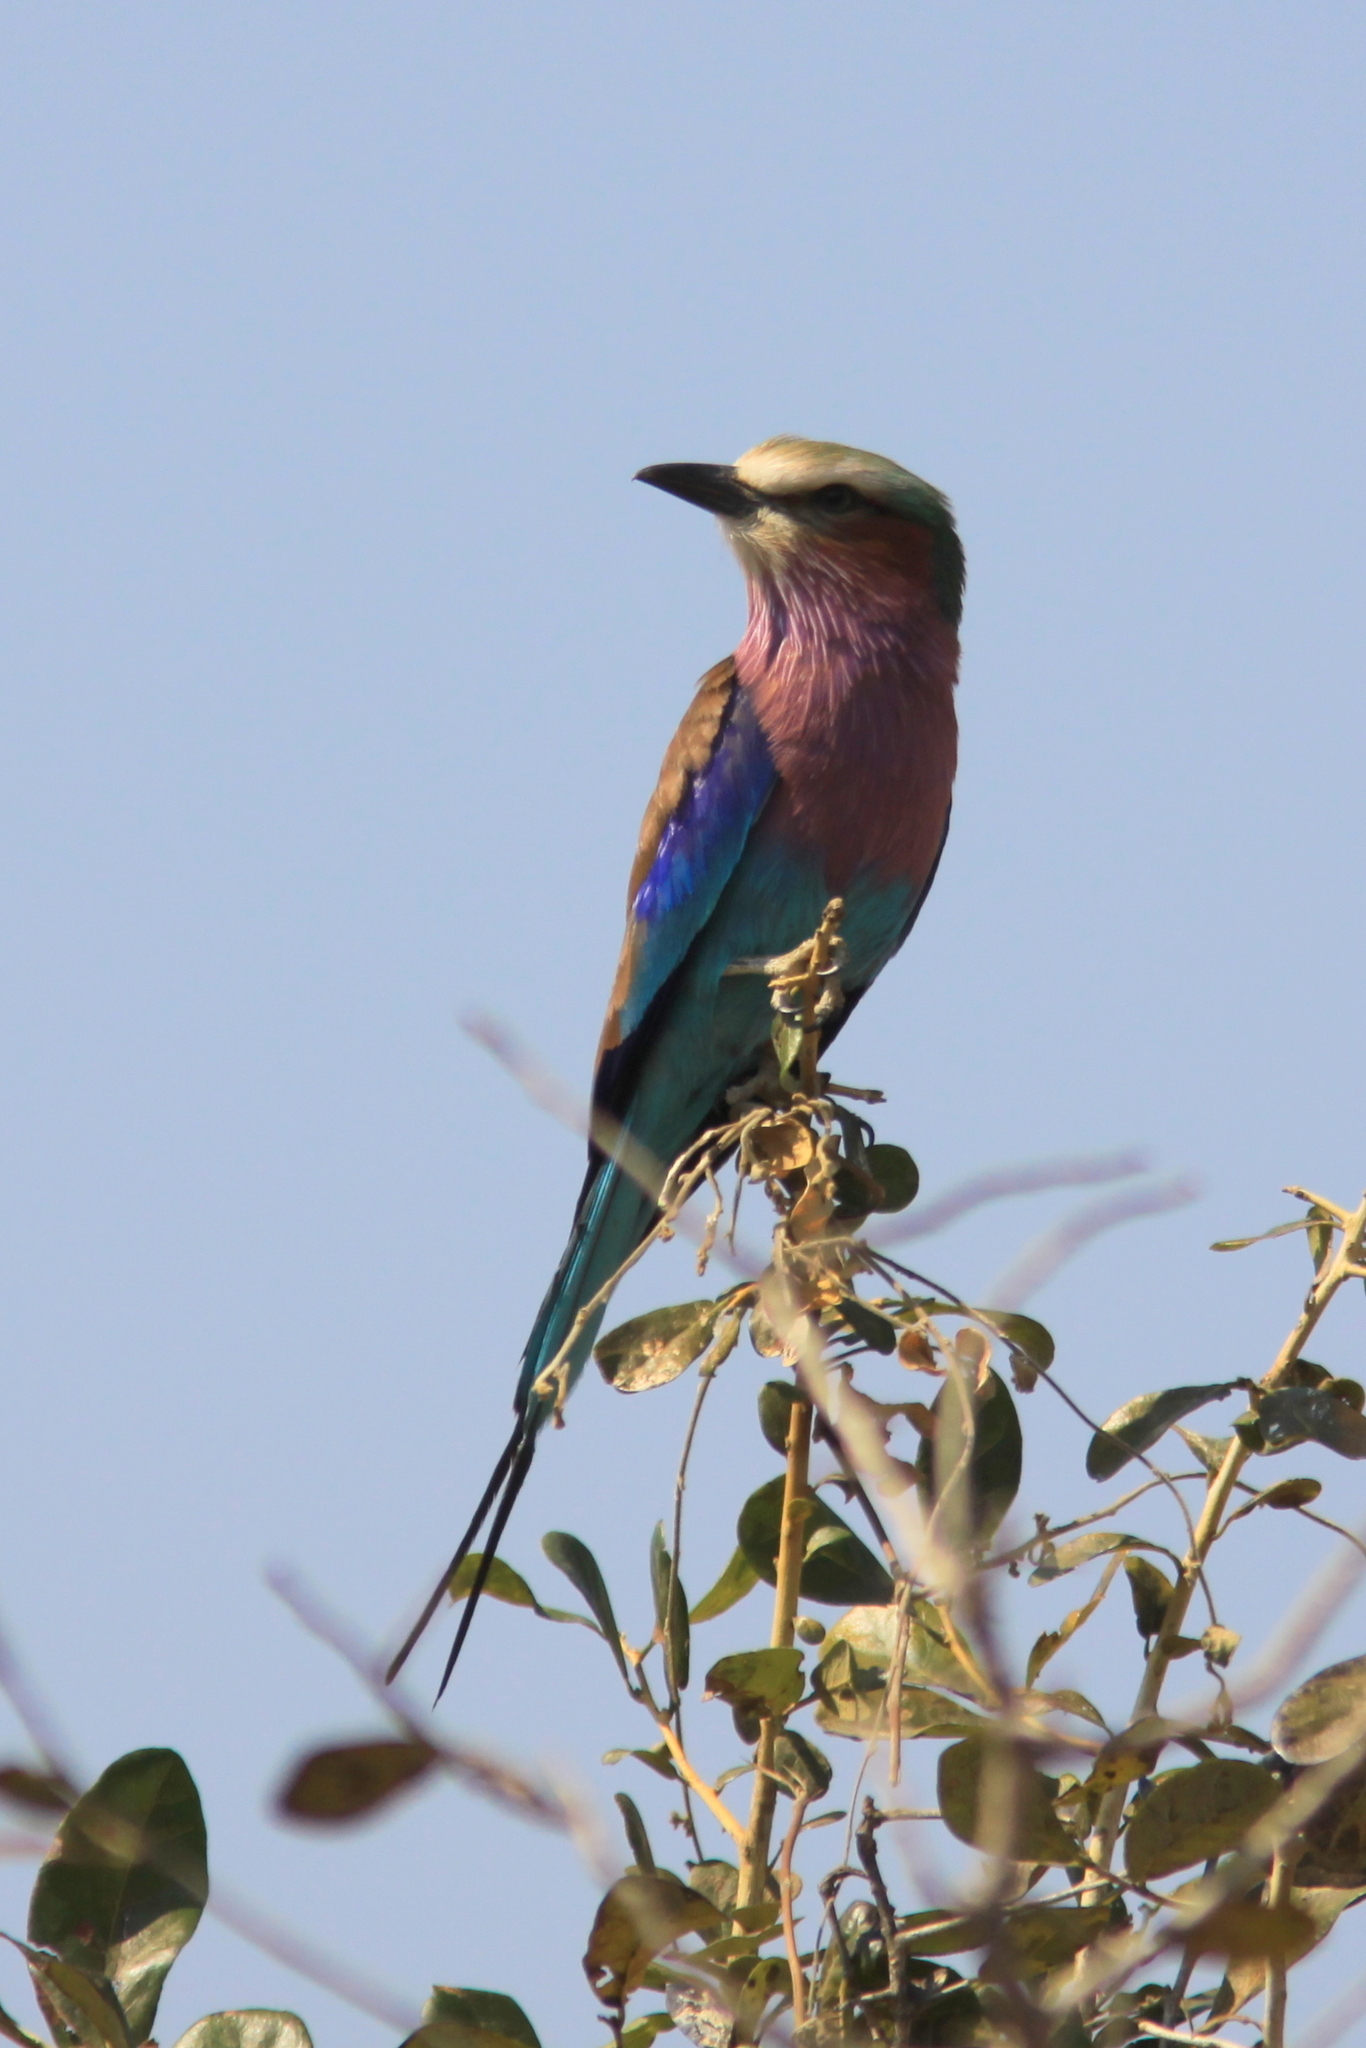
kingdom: Animalia
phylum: Chordata
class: Aves
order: Coraciiformes
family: Coraciidae
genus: Coracias
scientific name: Coracias caudatus
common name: Lilac-breasted roller
